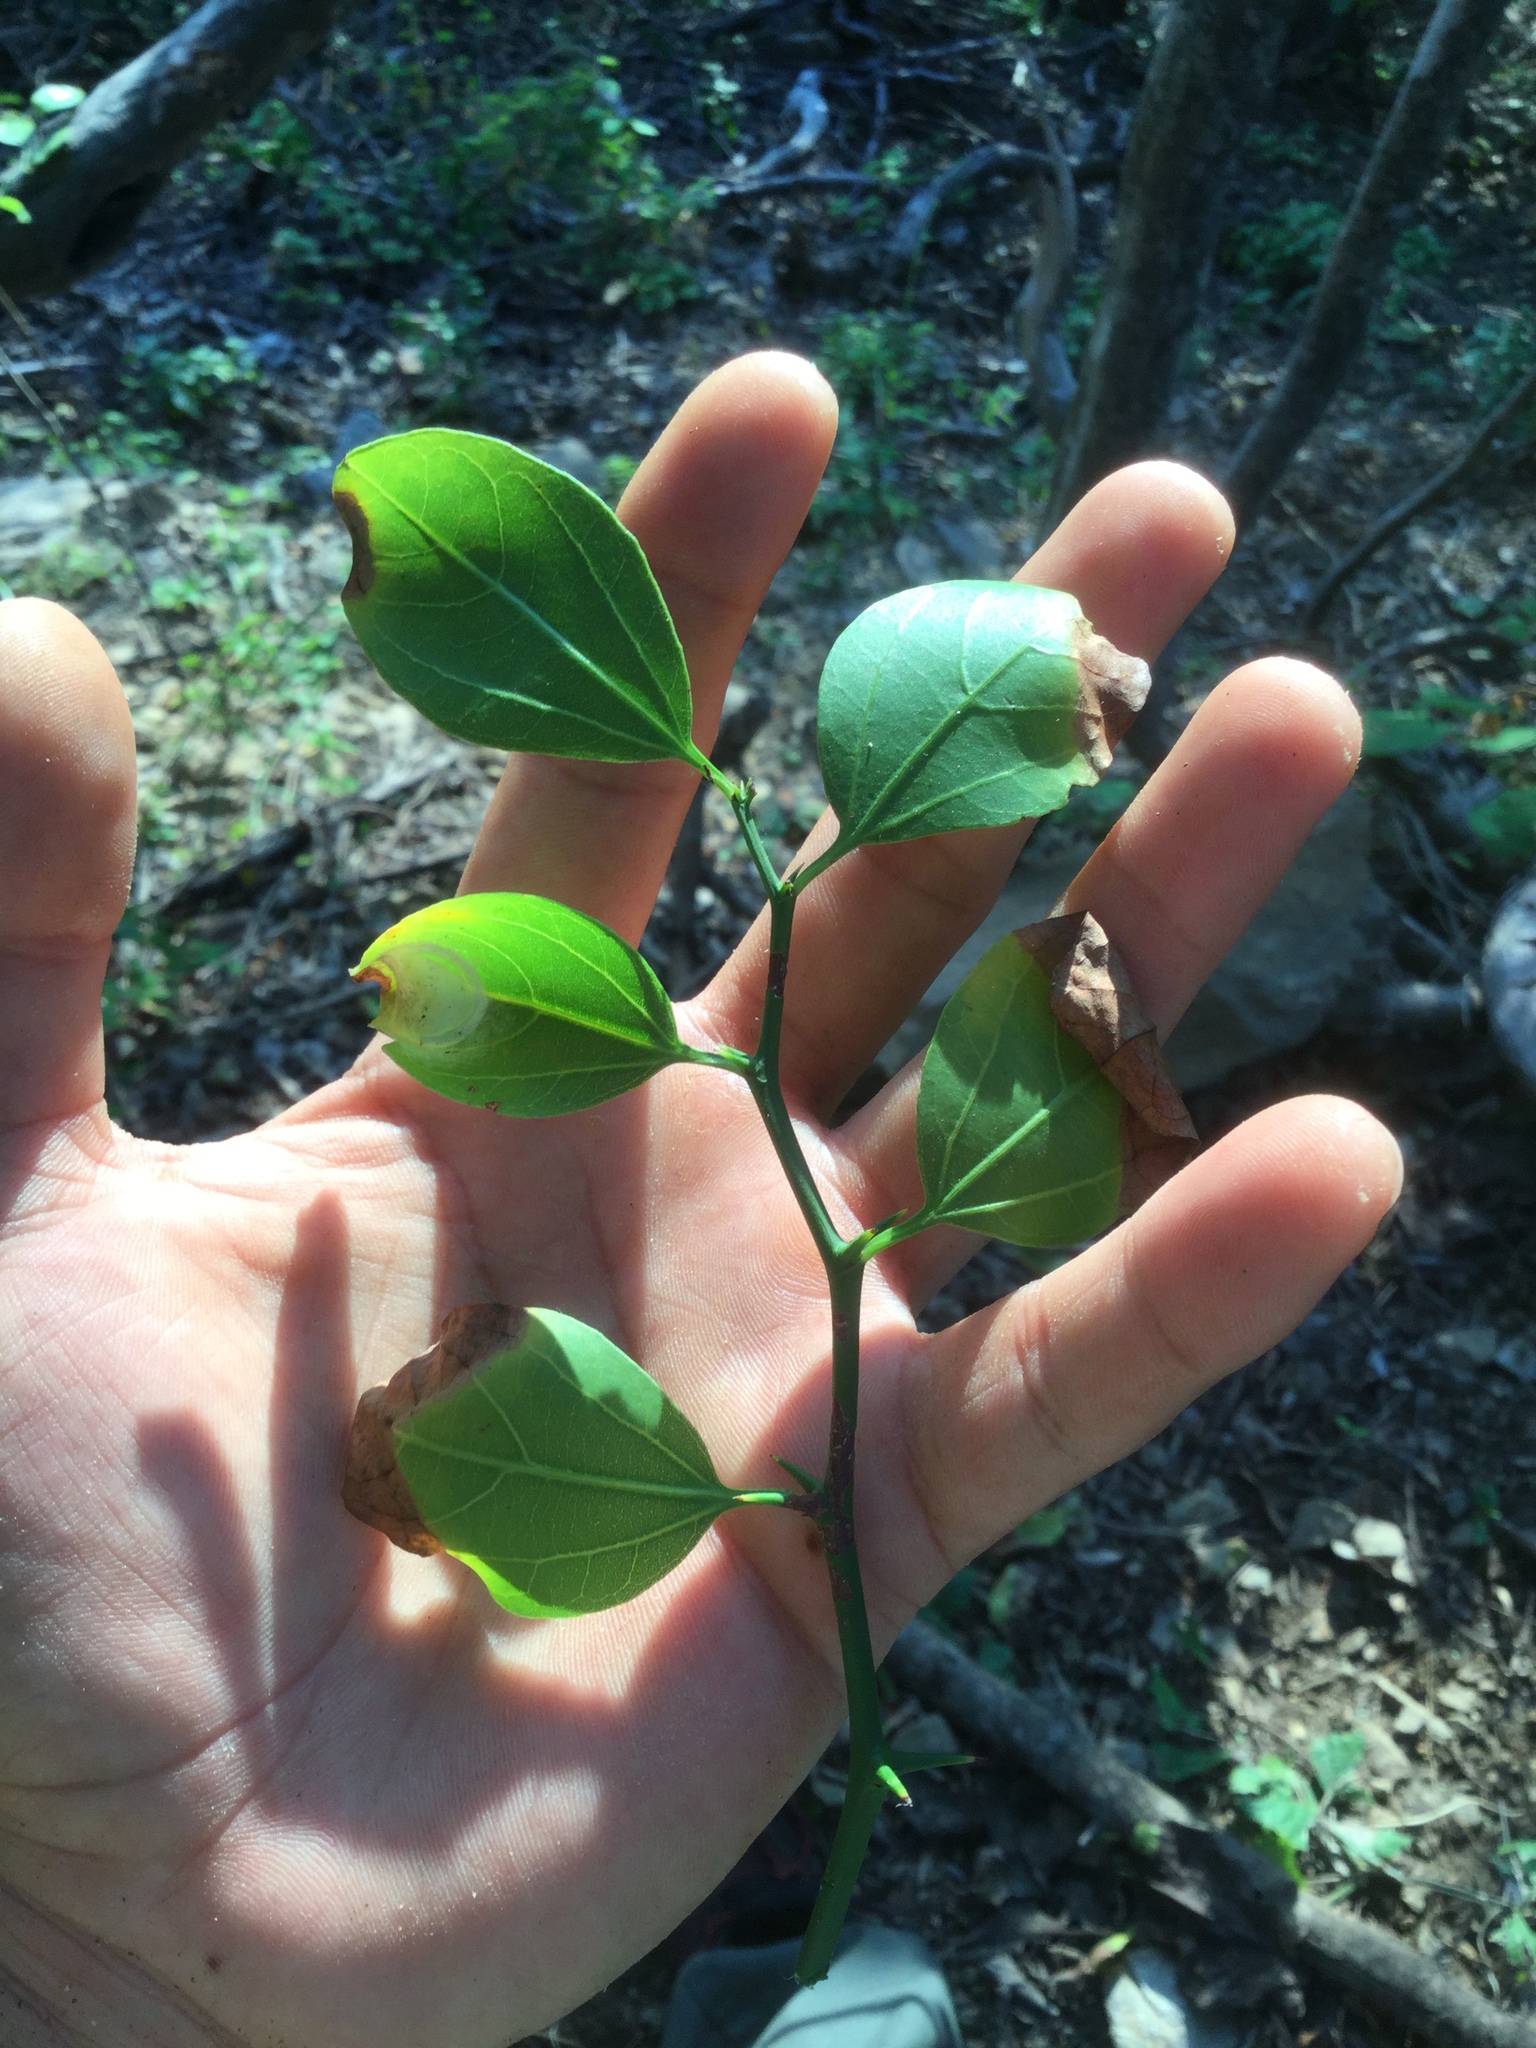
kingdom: Plantae
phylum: Tracheophyta
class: Magnoliopsida
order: Rosales
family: Rhamnaceae
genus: Sarcomphalus
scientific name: Sarcomphalus amole
